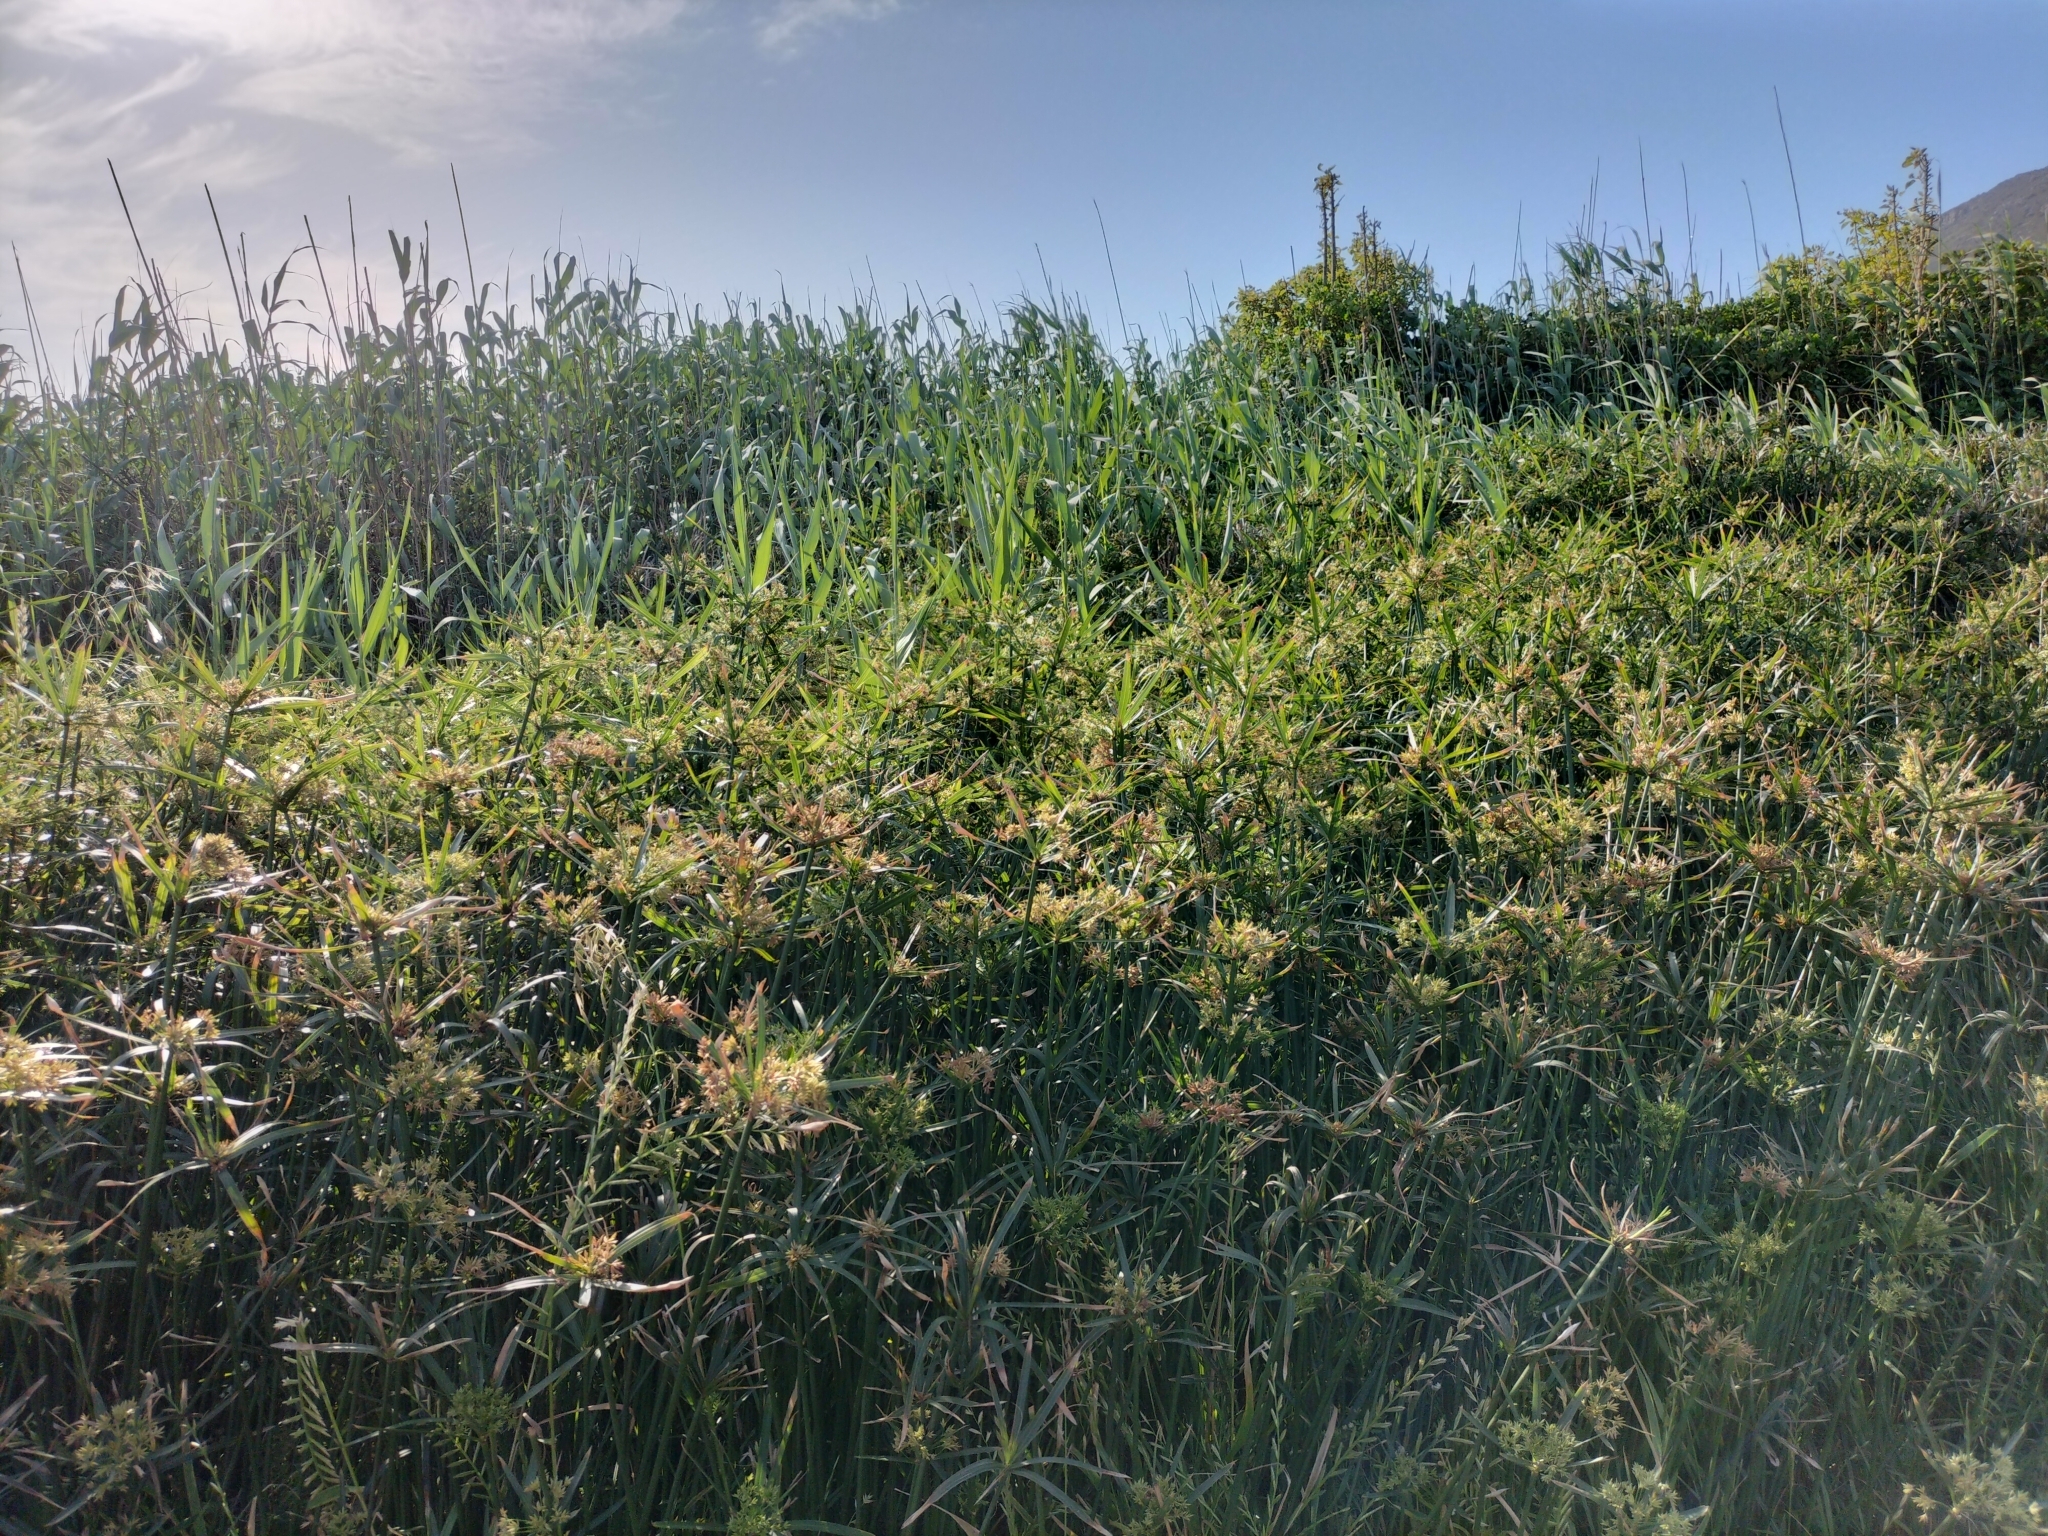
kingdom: Plantae
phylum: Tracheophyta
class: Liliopsida
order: Poales
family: Cyperaceae
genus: Cyperus
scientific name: Cyperus textilis
